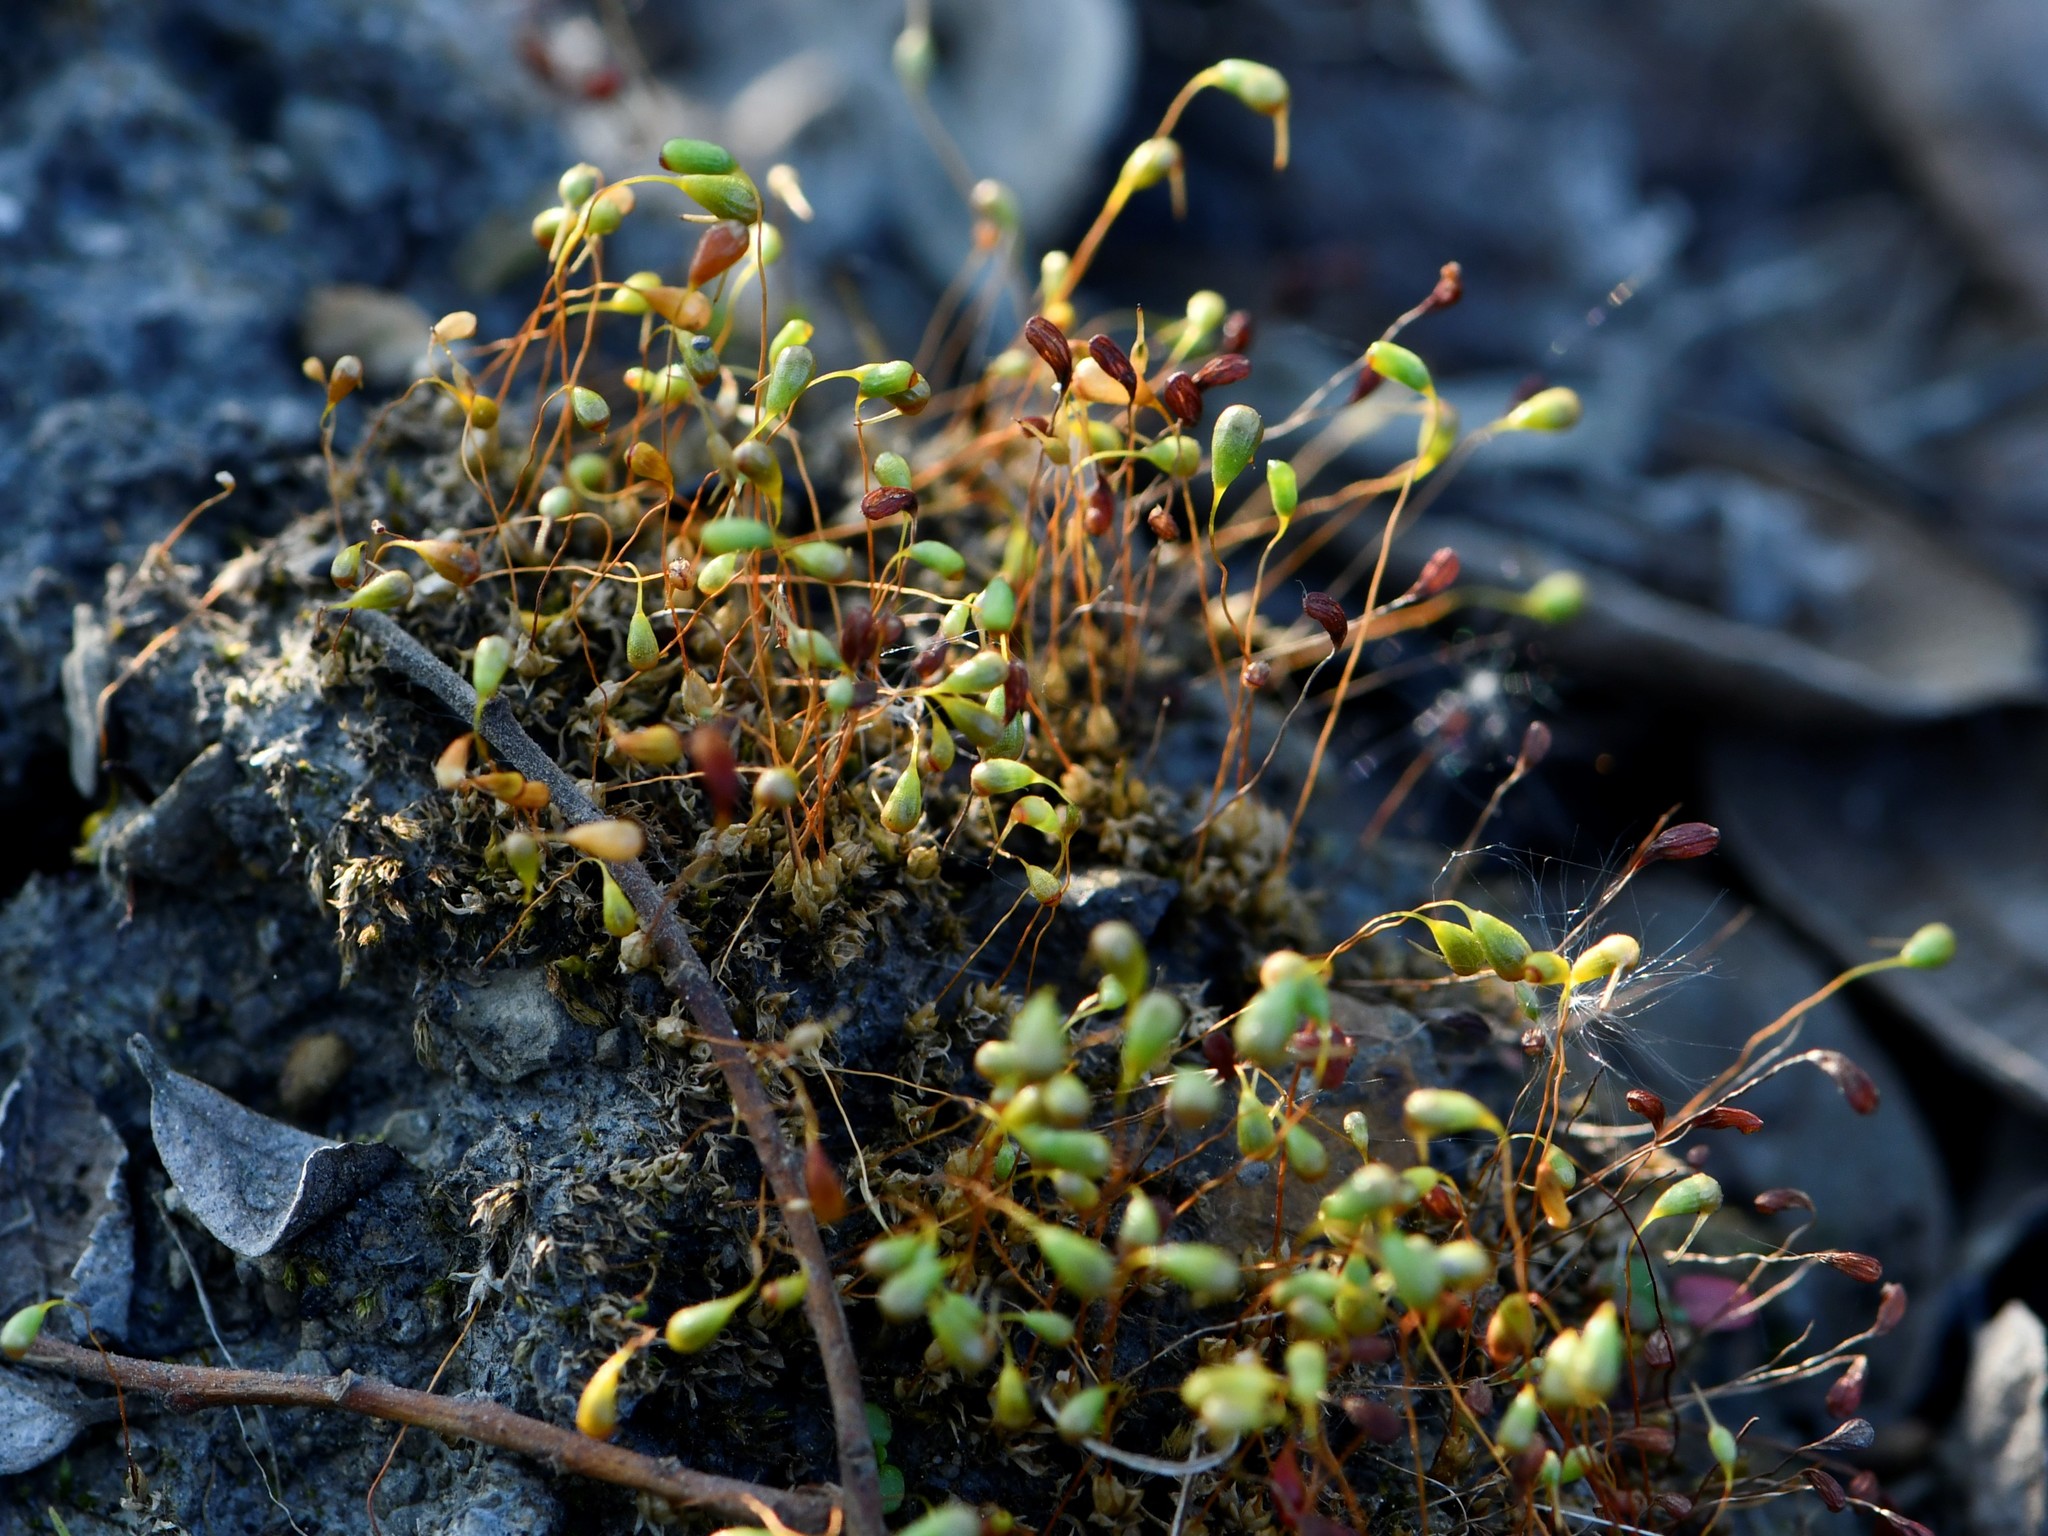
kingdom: Plantae
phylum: Bryophyta
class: Bryopsida
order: Funariales
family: Funariaceae
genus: Funaria
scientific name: Funaria hygrometrica
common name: Common cord moss
